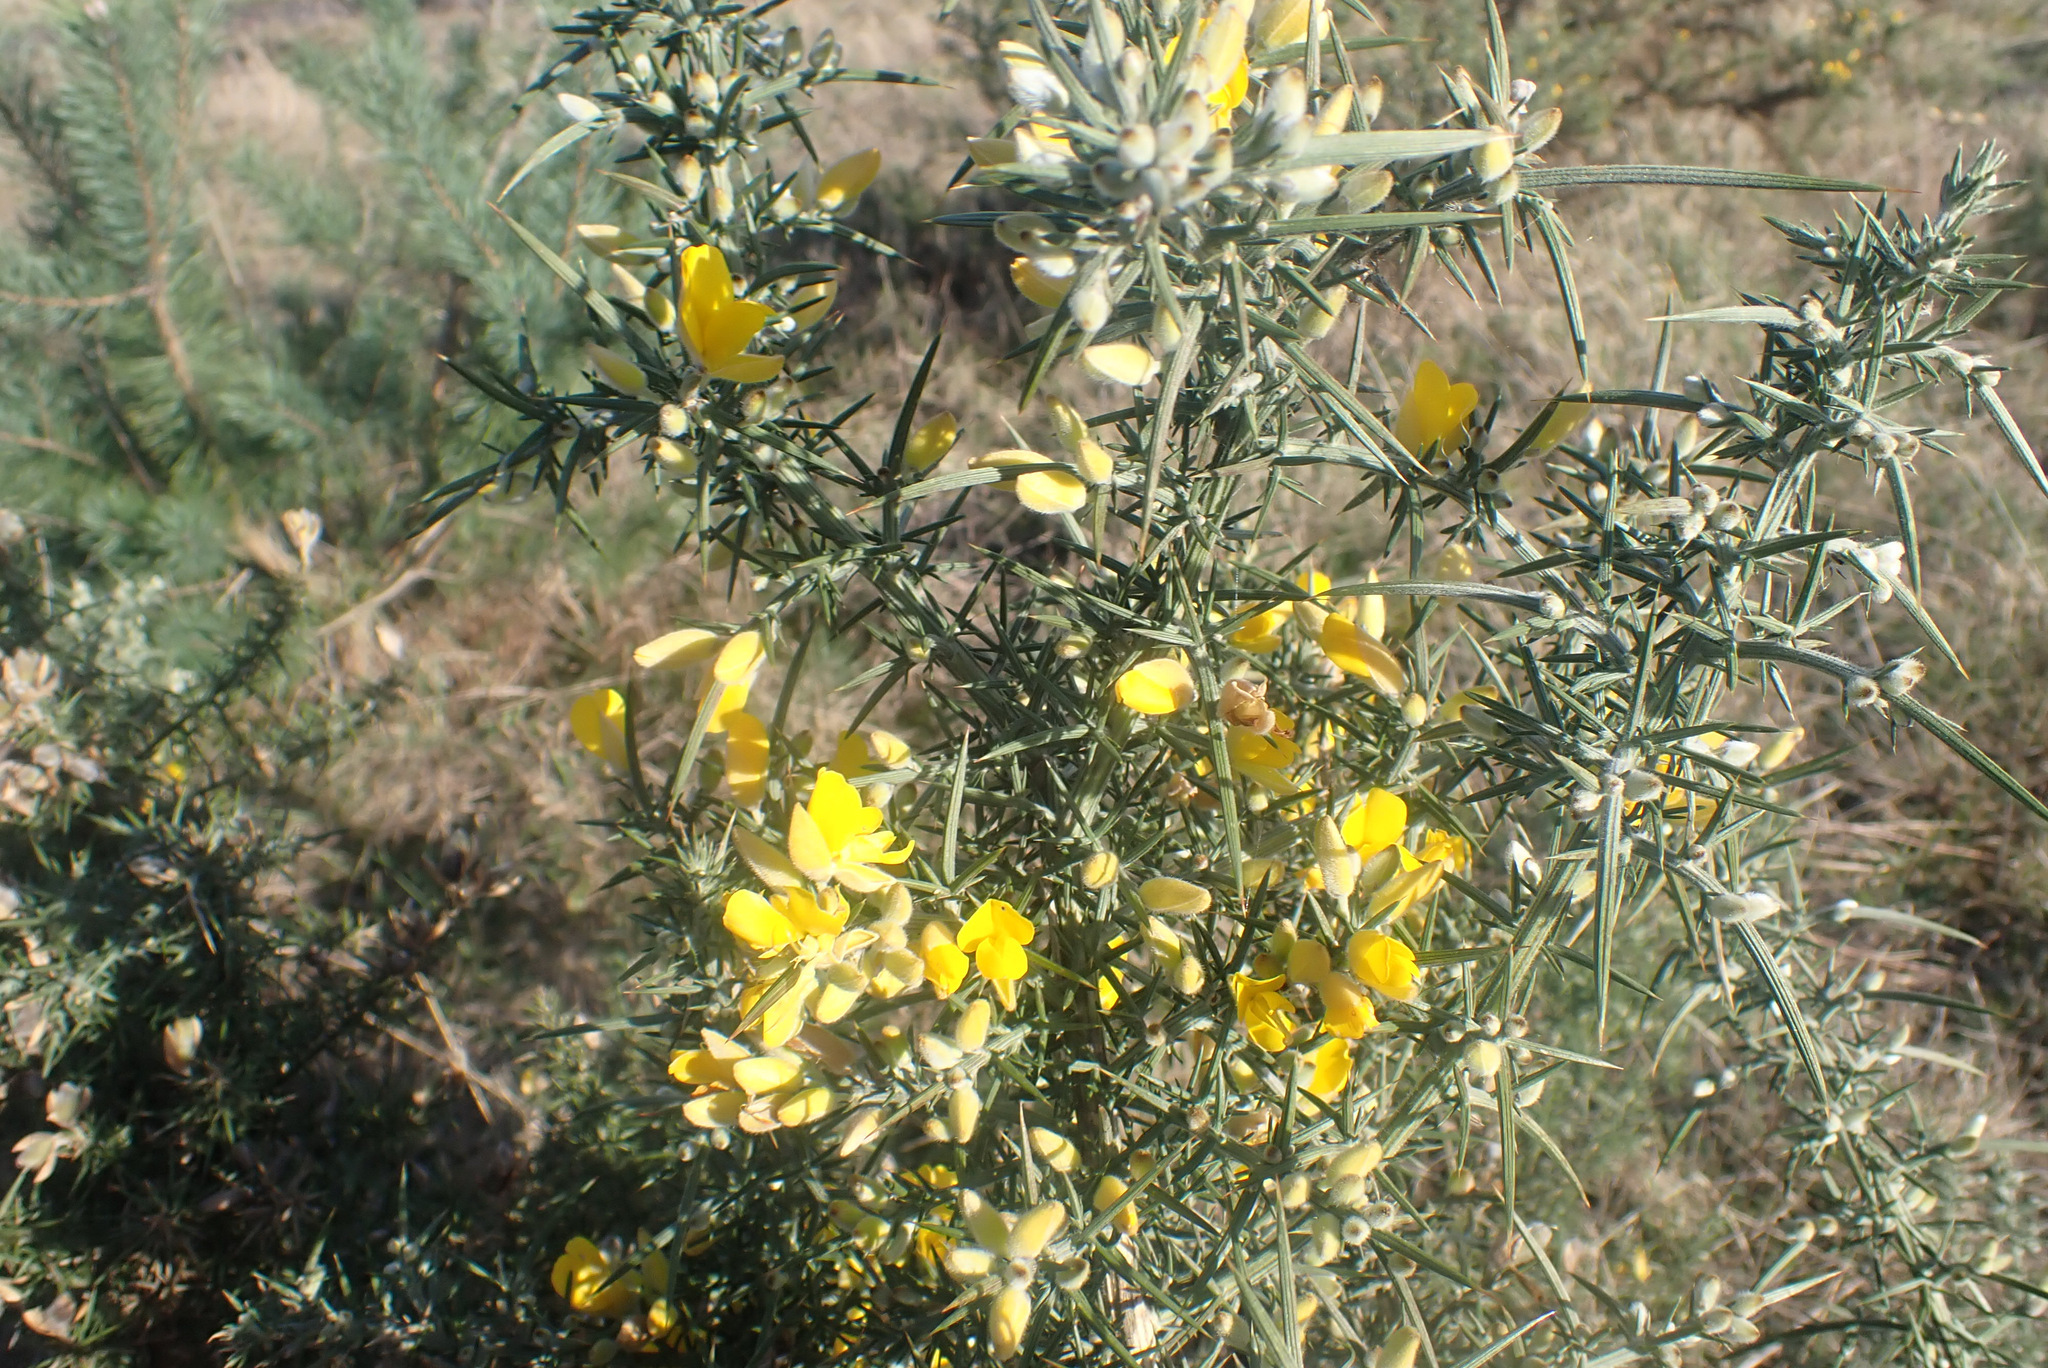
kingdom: Plantae
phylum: Tracheophyta
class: Magnoliopsida
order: Fabales
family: Fabaceae
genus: Ulex
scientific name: Ulex europaeus
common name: Common gorse
